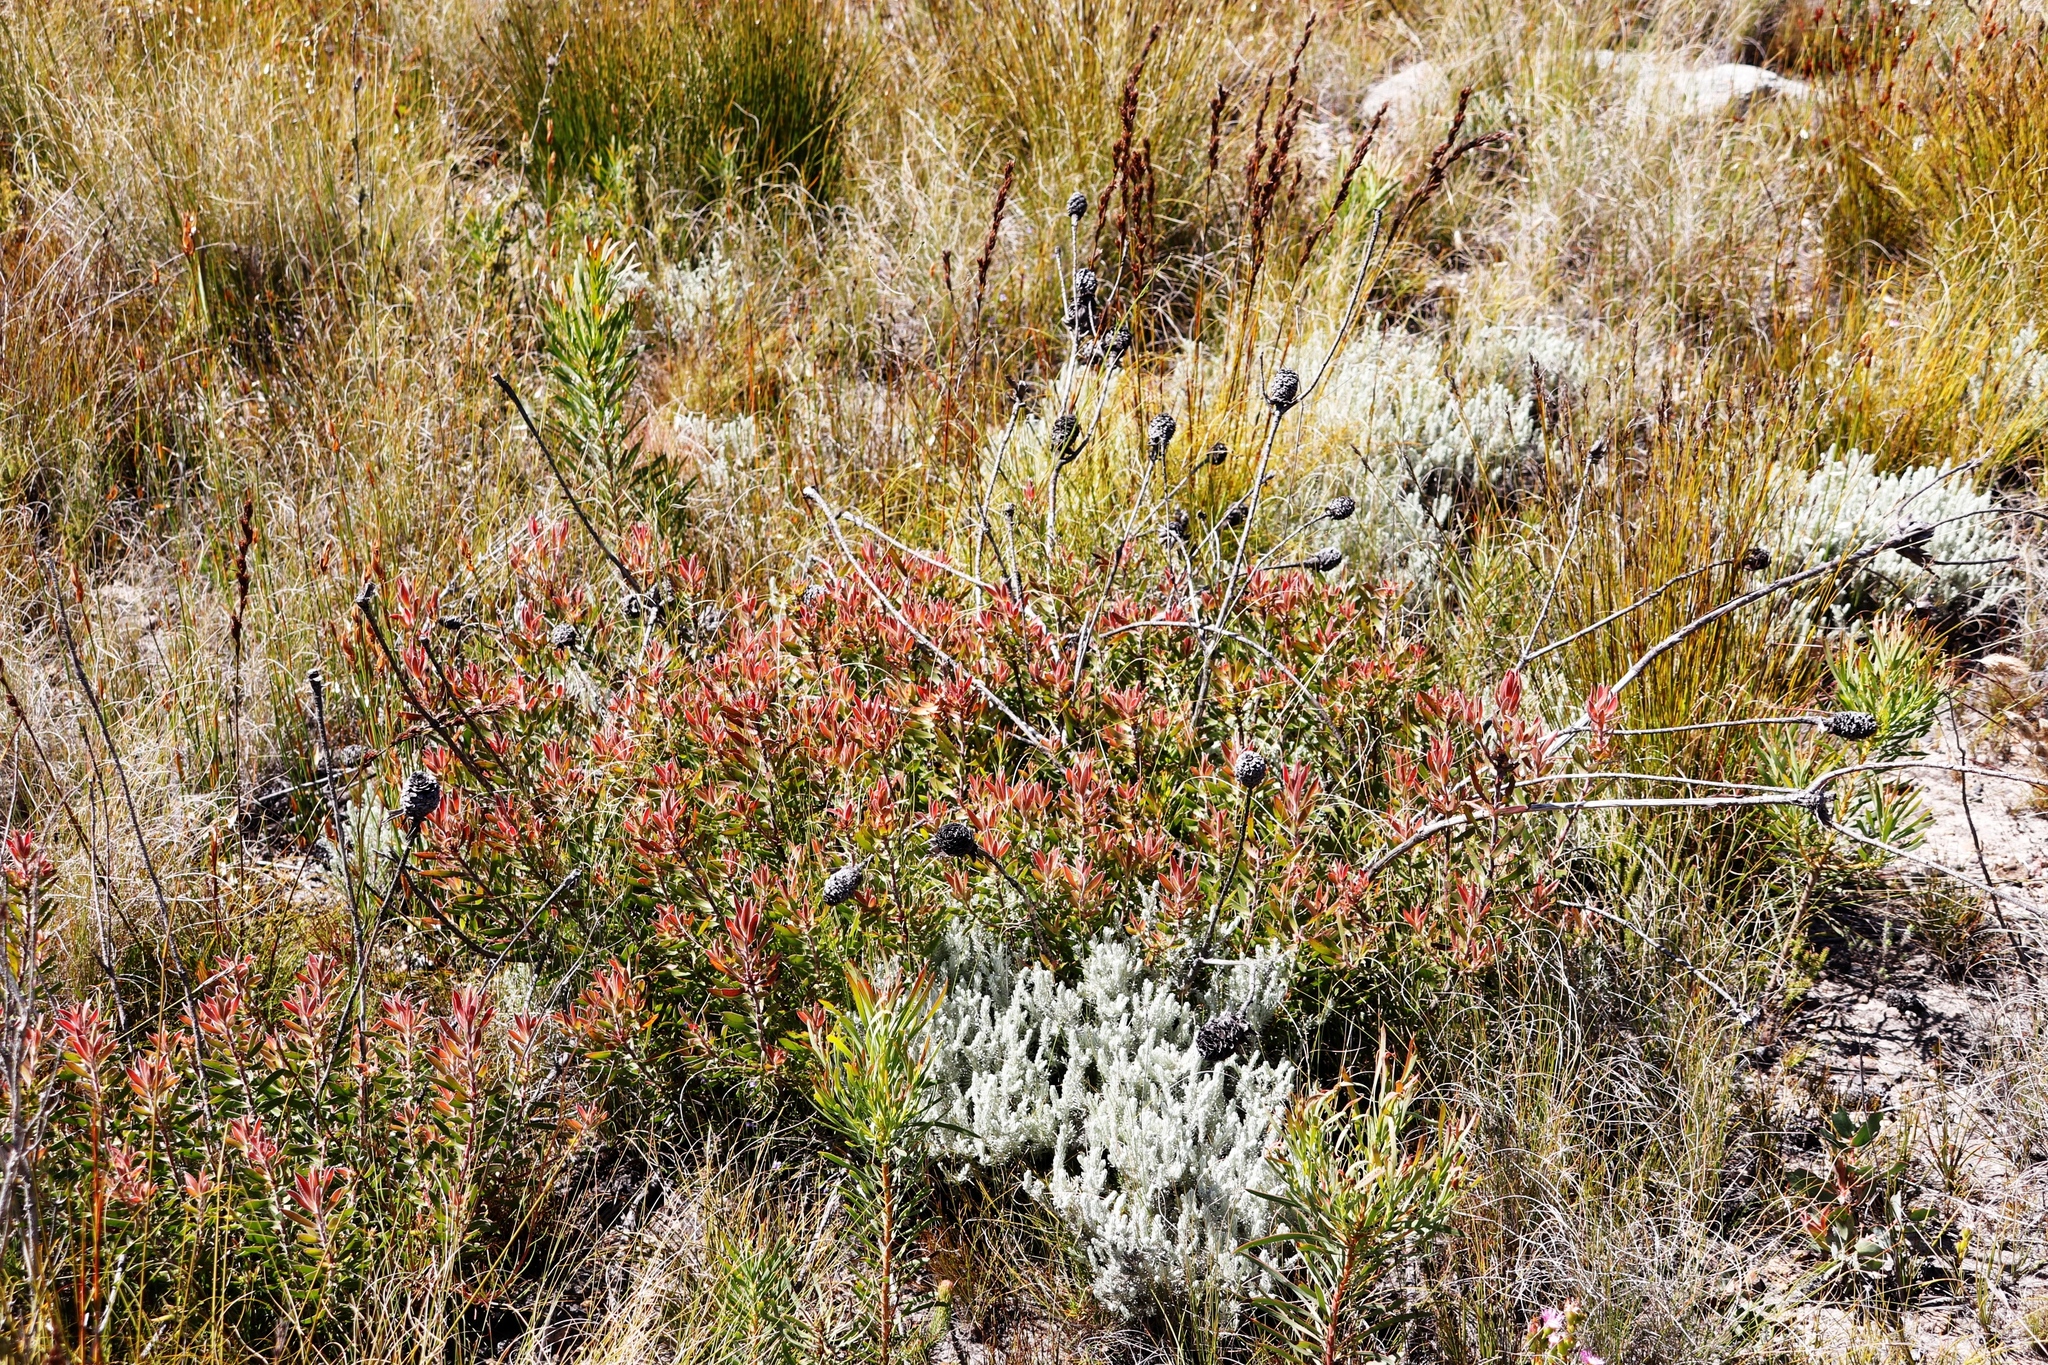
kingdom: Plantae
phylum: Tracheophyta
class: Magnoliopsida
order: Proteales
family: Proteaceae
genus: Leucadendron
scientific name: Leucadendron spissifolium
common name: Spear-leaf conebush
